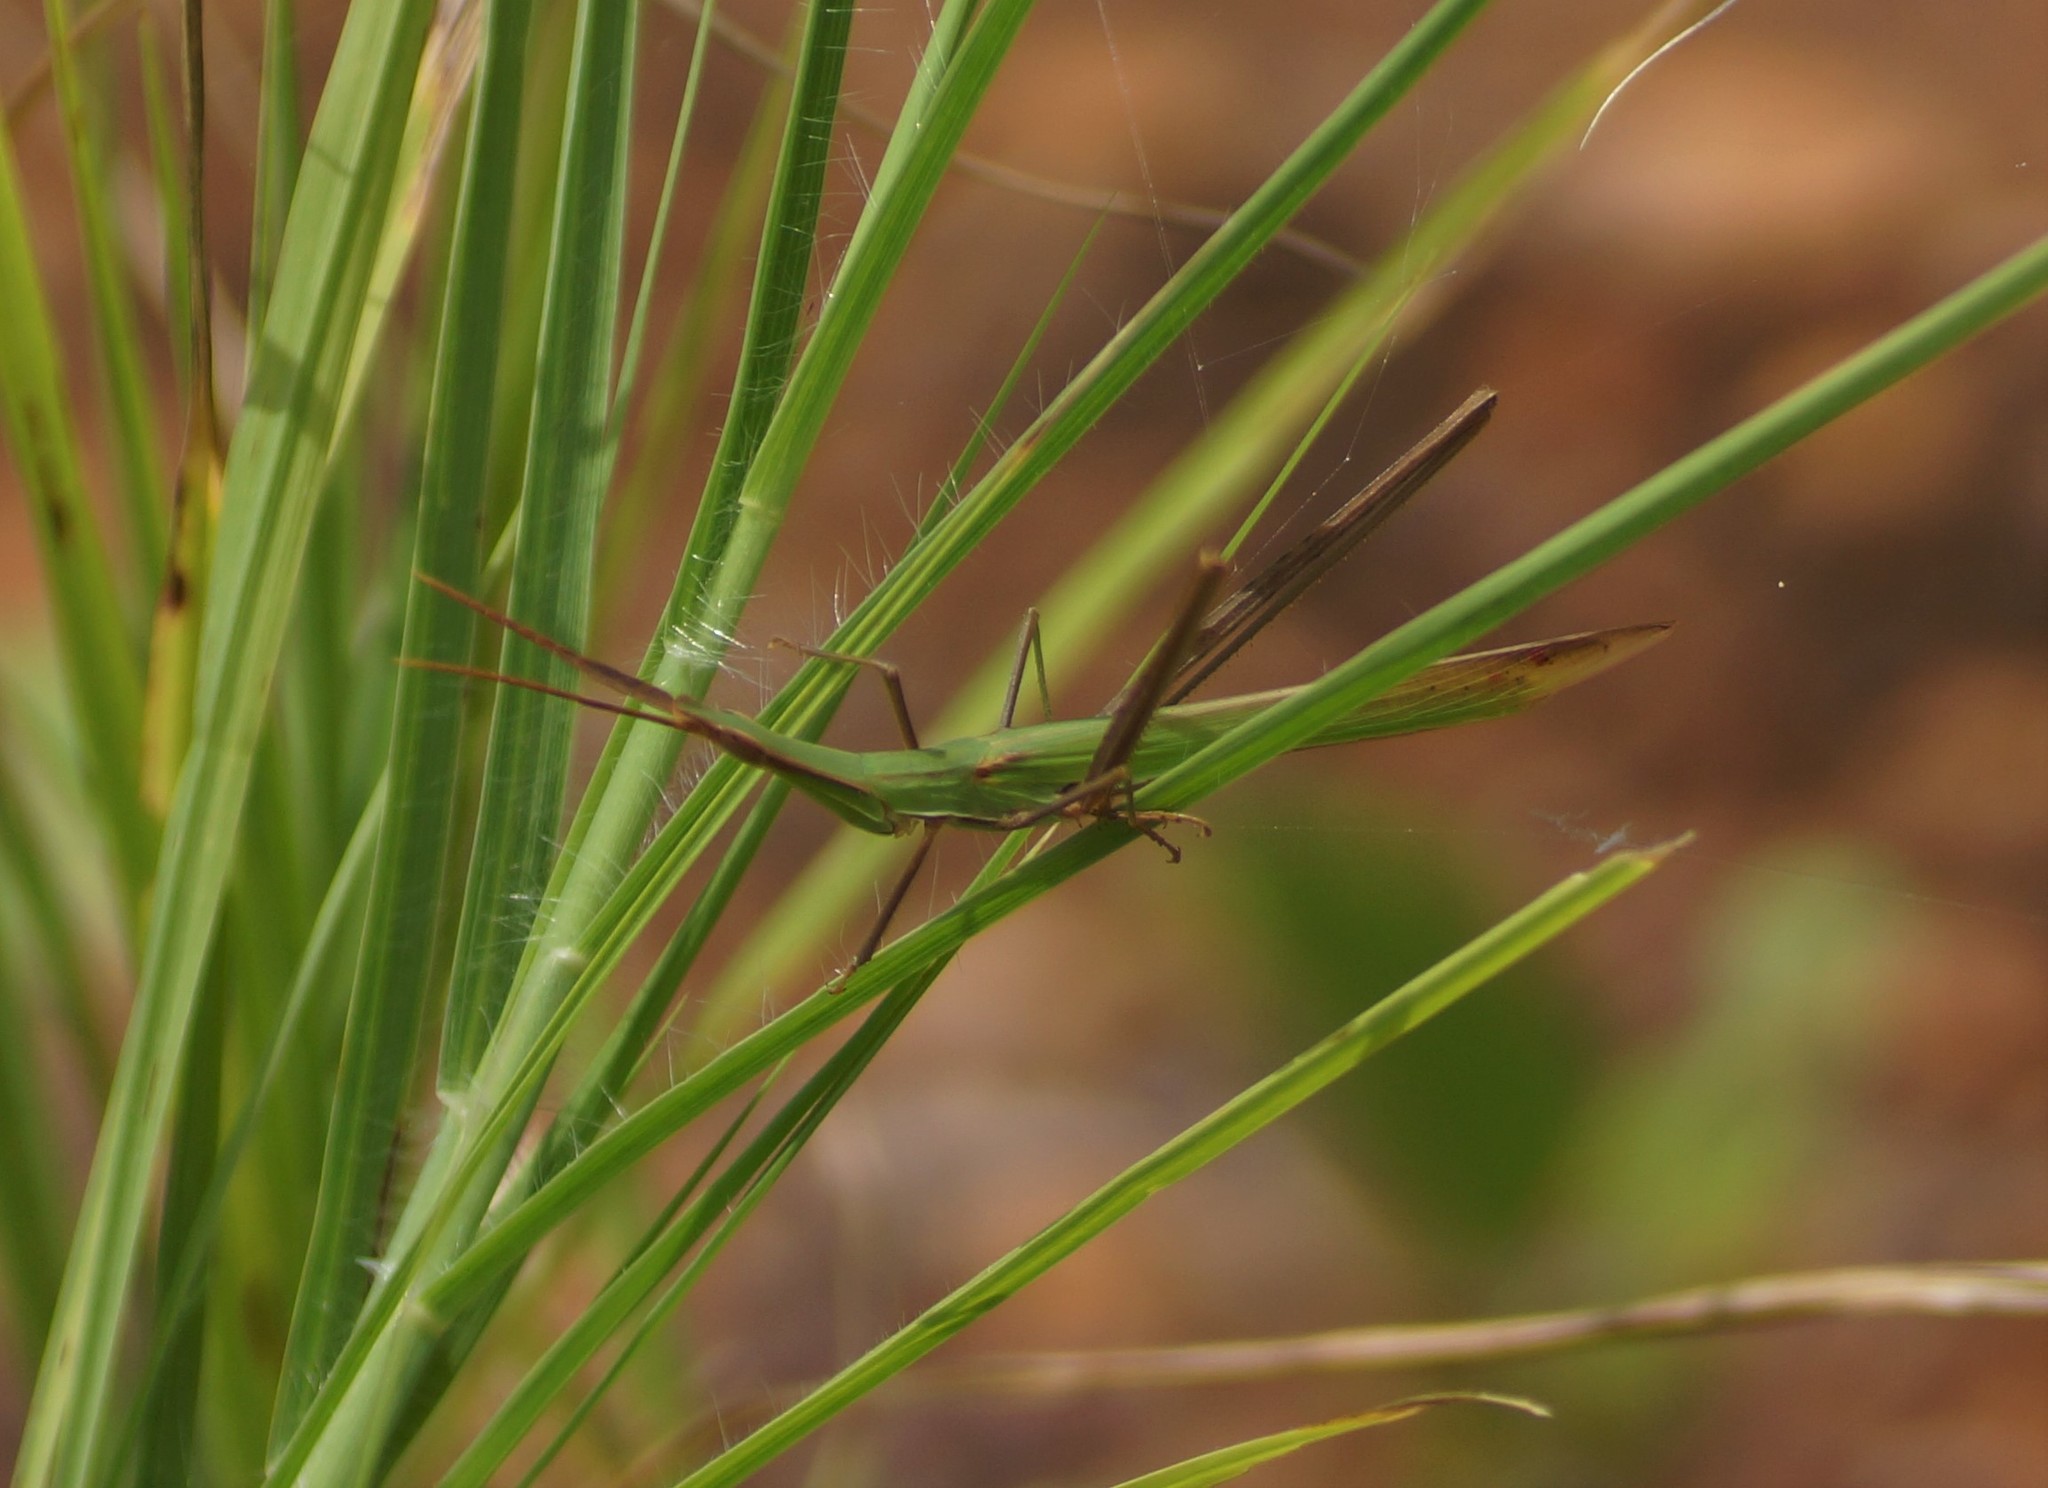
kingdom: Animalia
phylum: Arthropoda
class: Insecta
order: Orthoptera
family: Acrididae
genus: Acrida
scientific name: Acrida conica
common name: Giant green slantface
